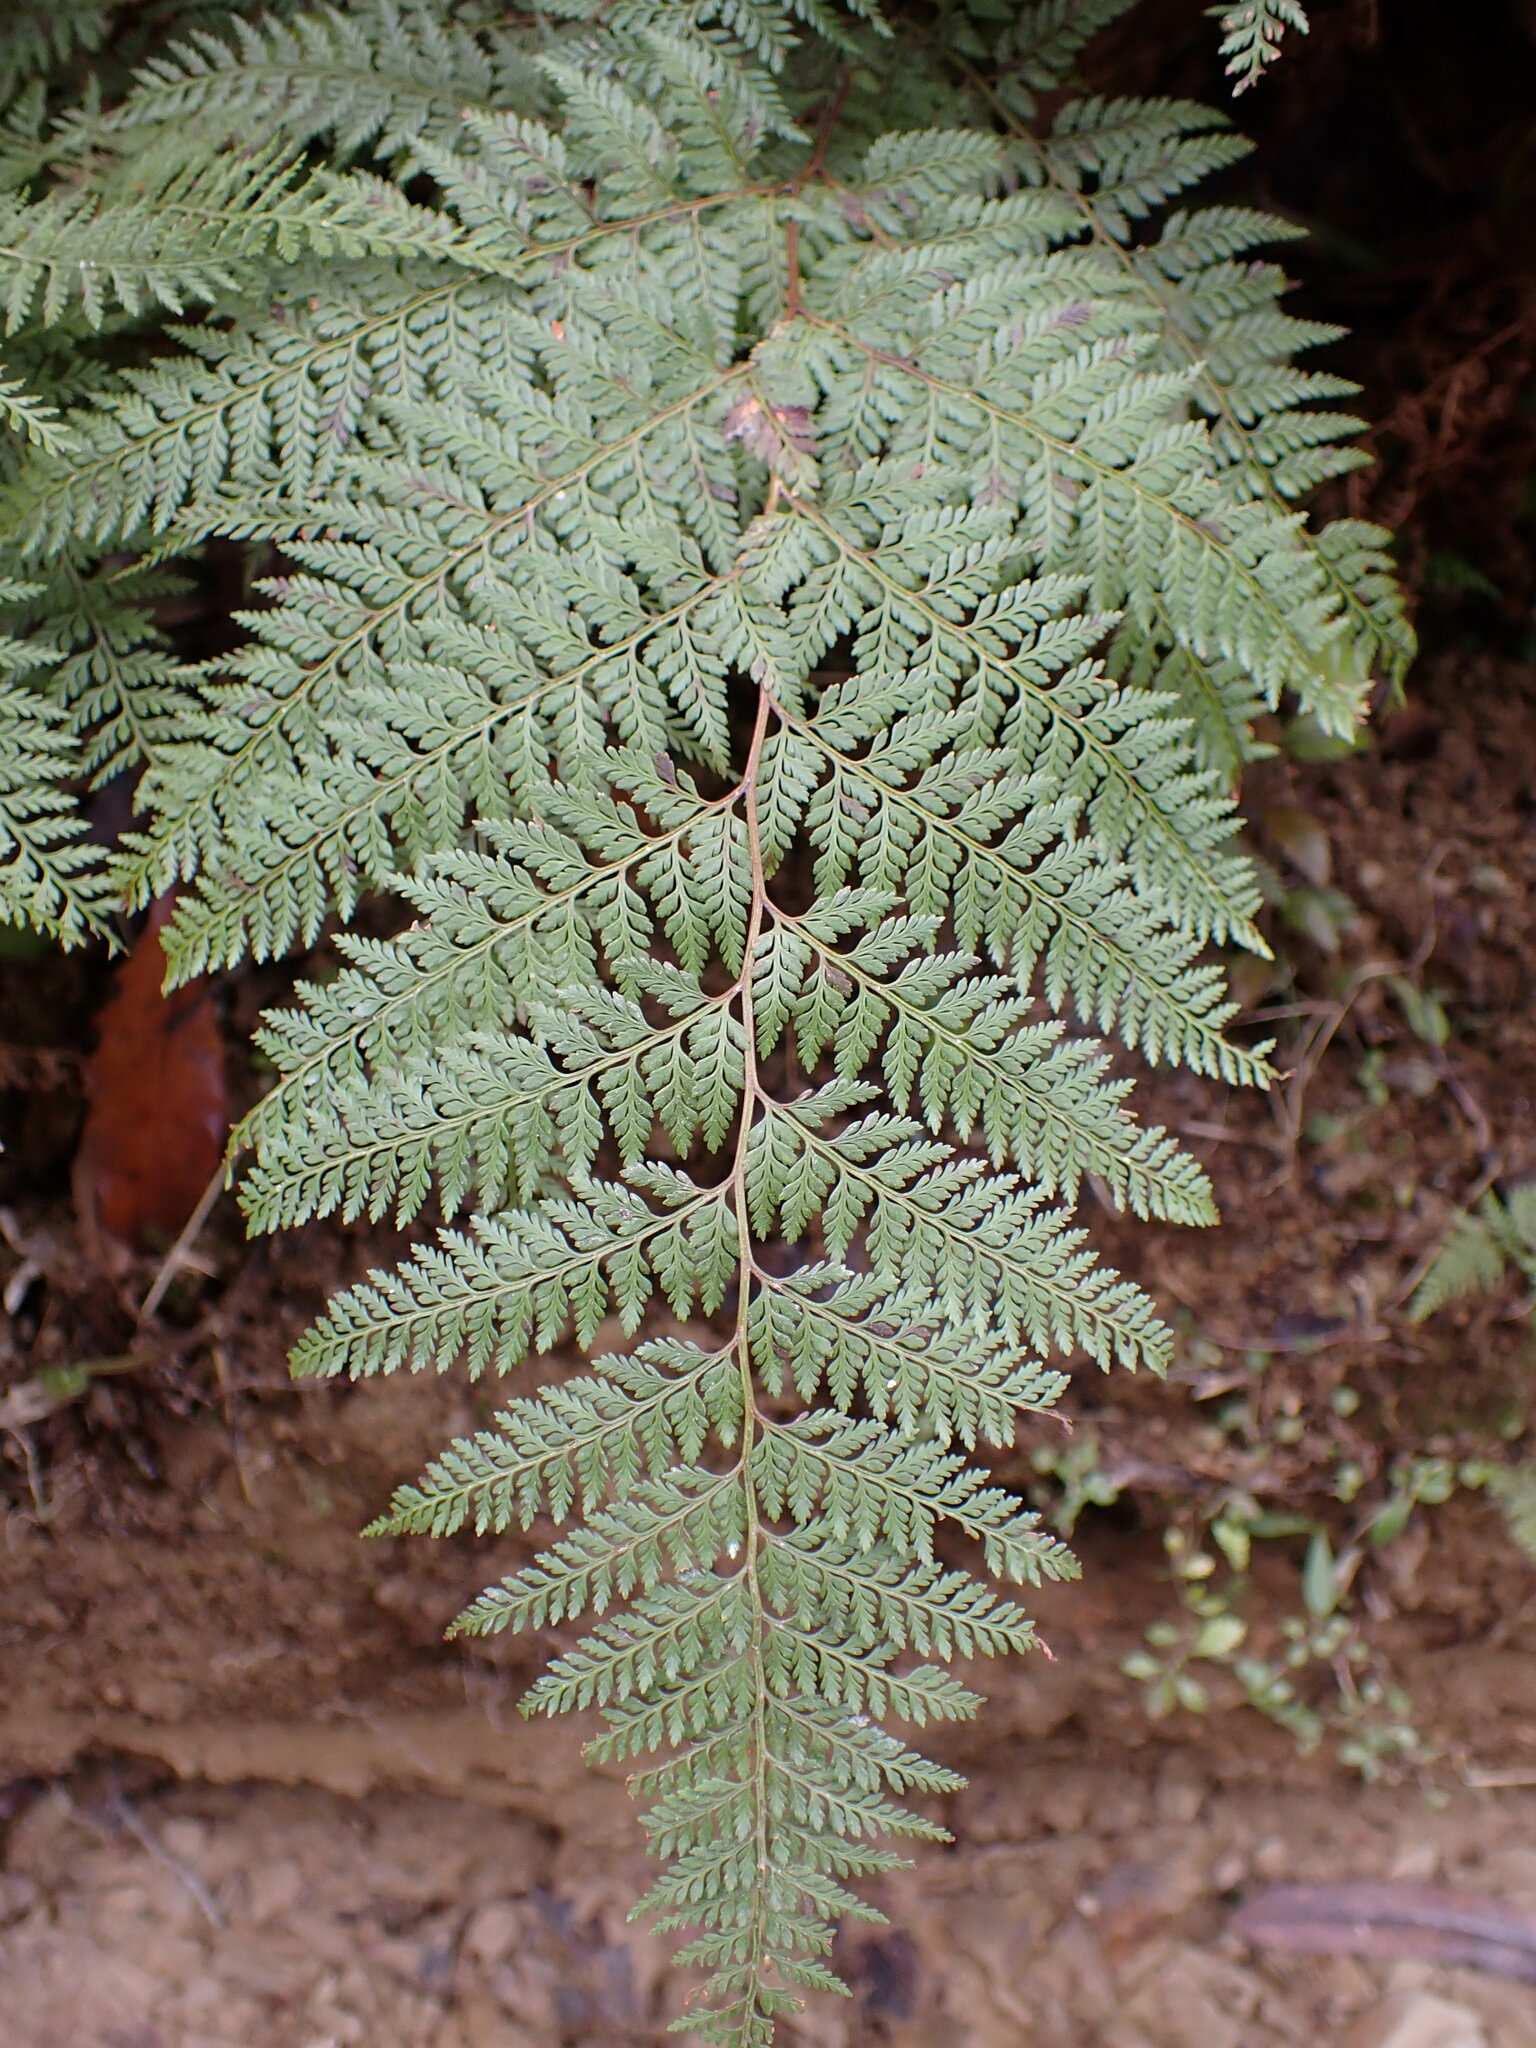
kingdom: Plantae
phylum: Tracheophyta
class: Polypodiopsida
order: Polypodiales
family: Dennstaedtiaceae
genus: Paesia
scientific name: Paesia scaberula
